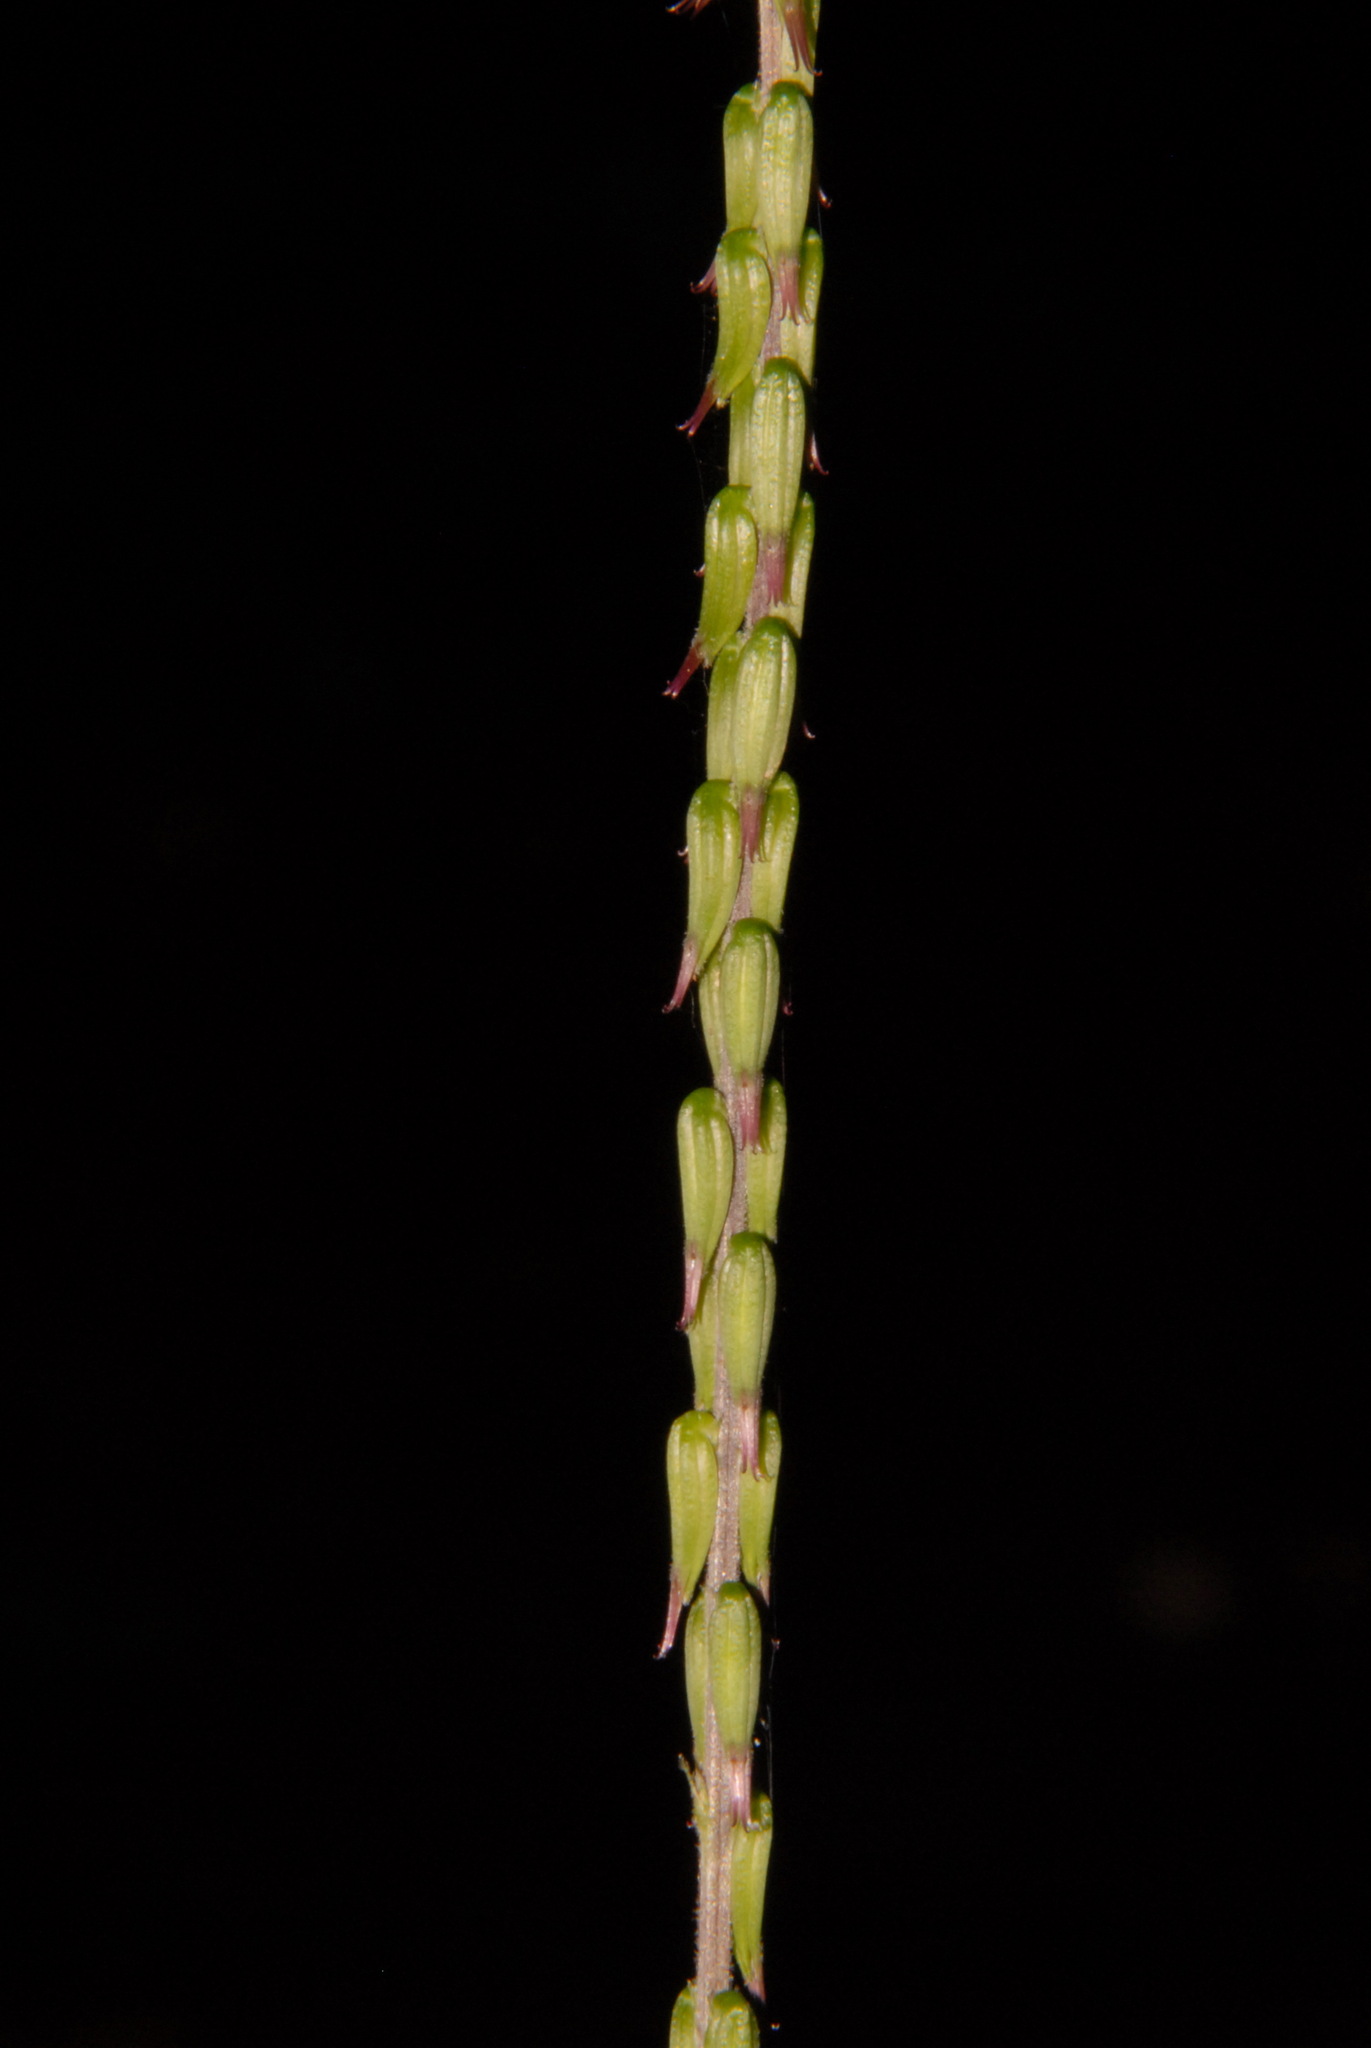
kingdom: Plantae
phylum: Tracheophyta
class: Magnoliopsida
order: Lamiales
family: Phrymaceae
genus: Phryma
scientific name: Phryma leptostachya
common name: American lopseed
